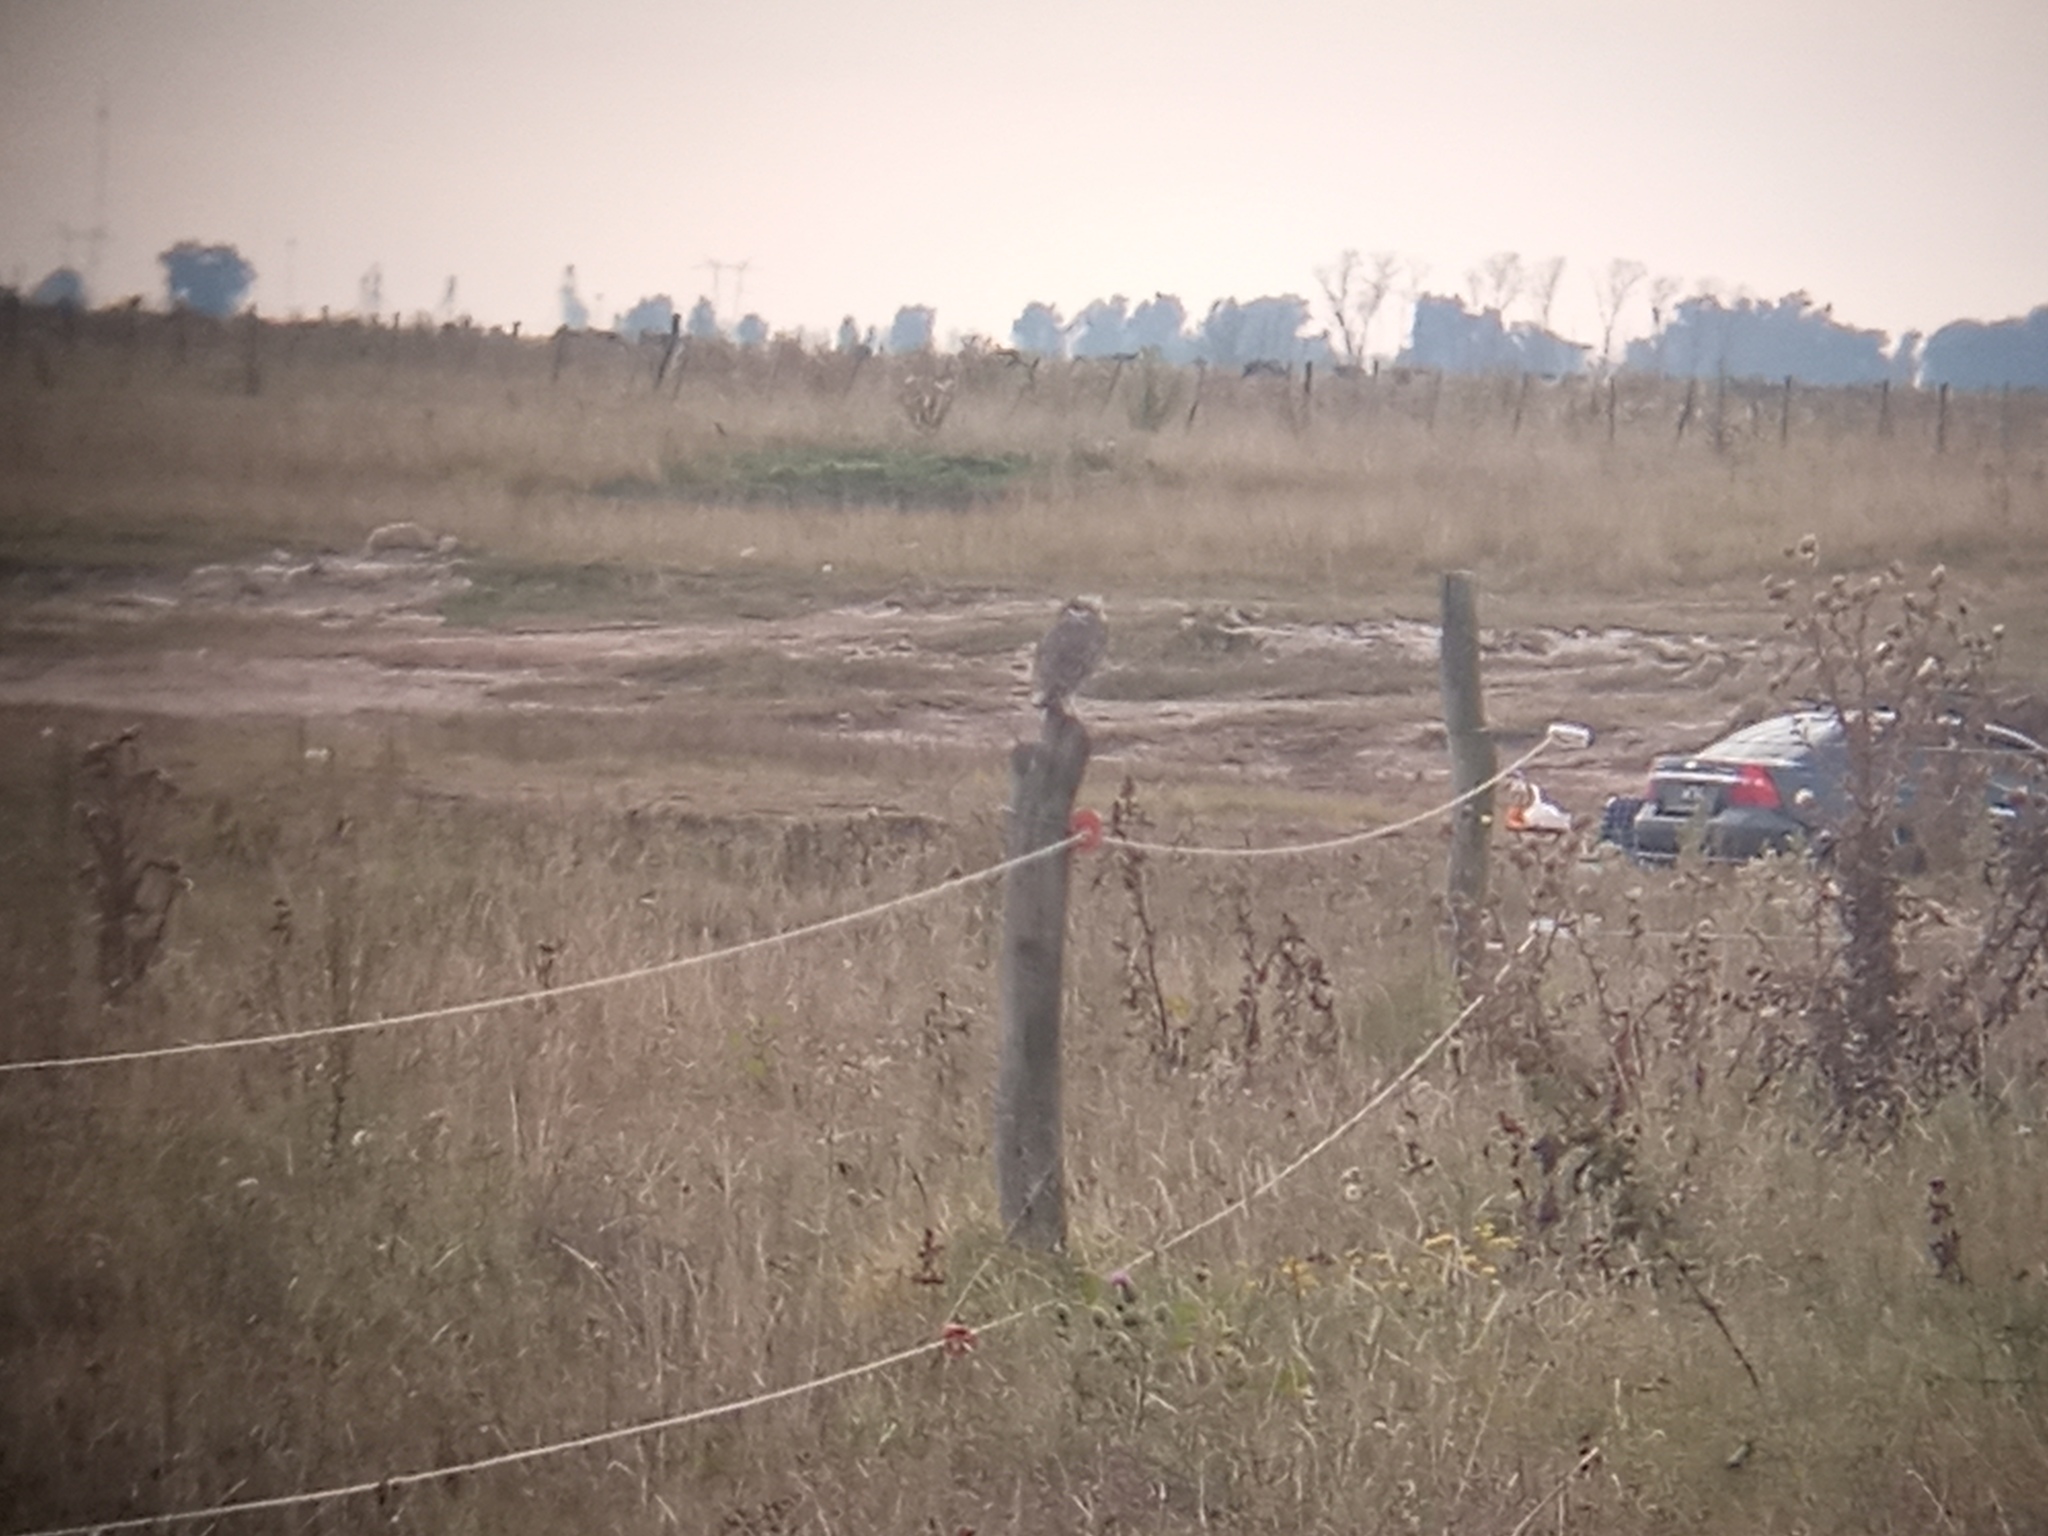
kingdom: Animalia
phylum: Chordata
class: Aves
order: Strigiformes
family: Strigidae
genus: Athene
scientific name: Athene cunicularia
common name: Burrowing owl
